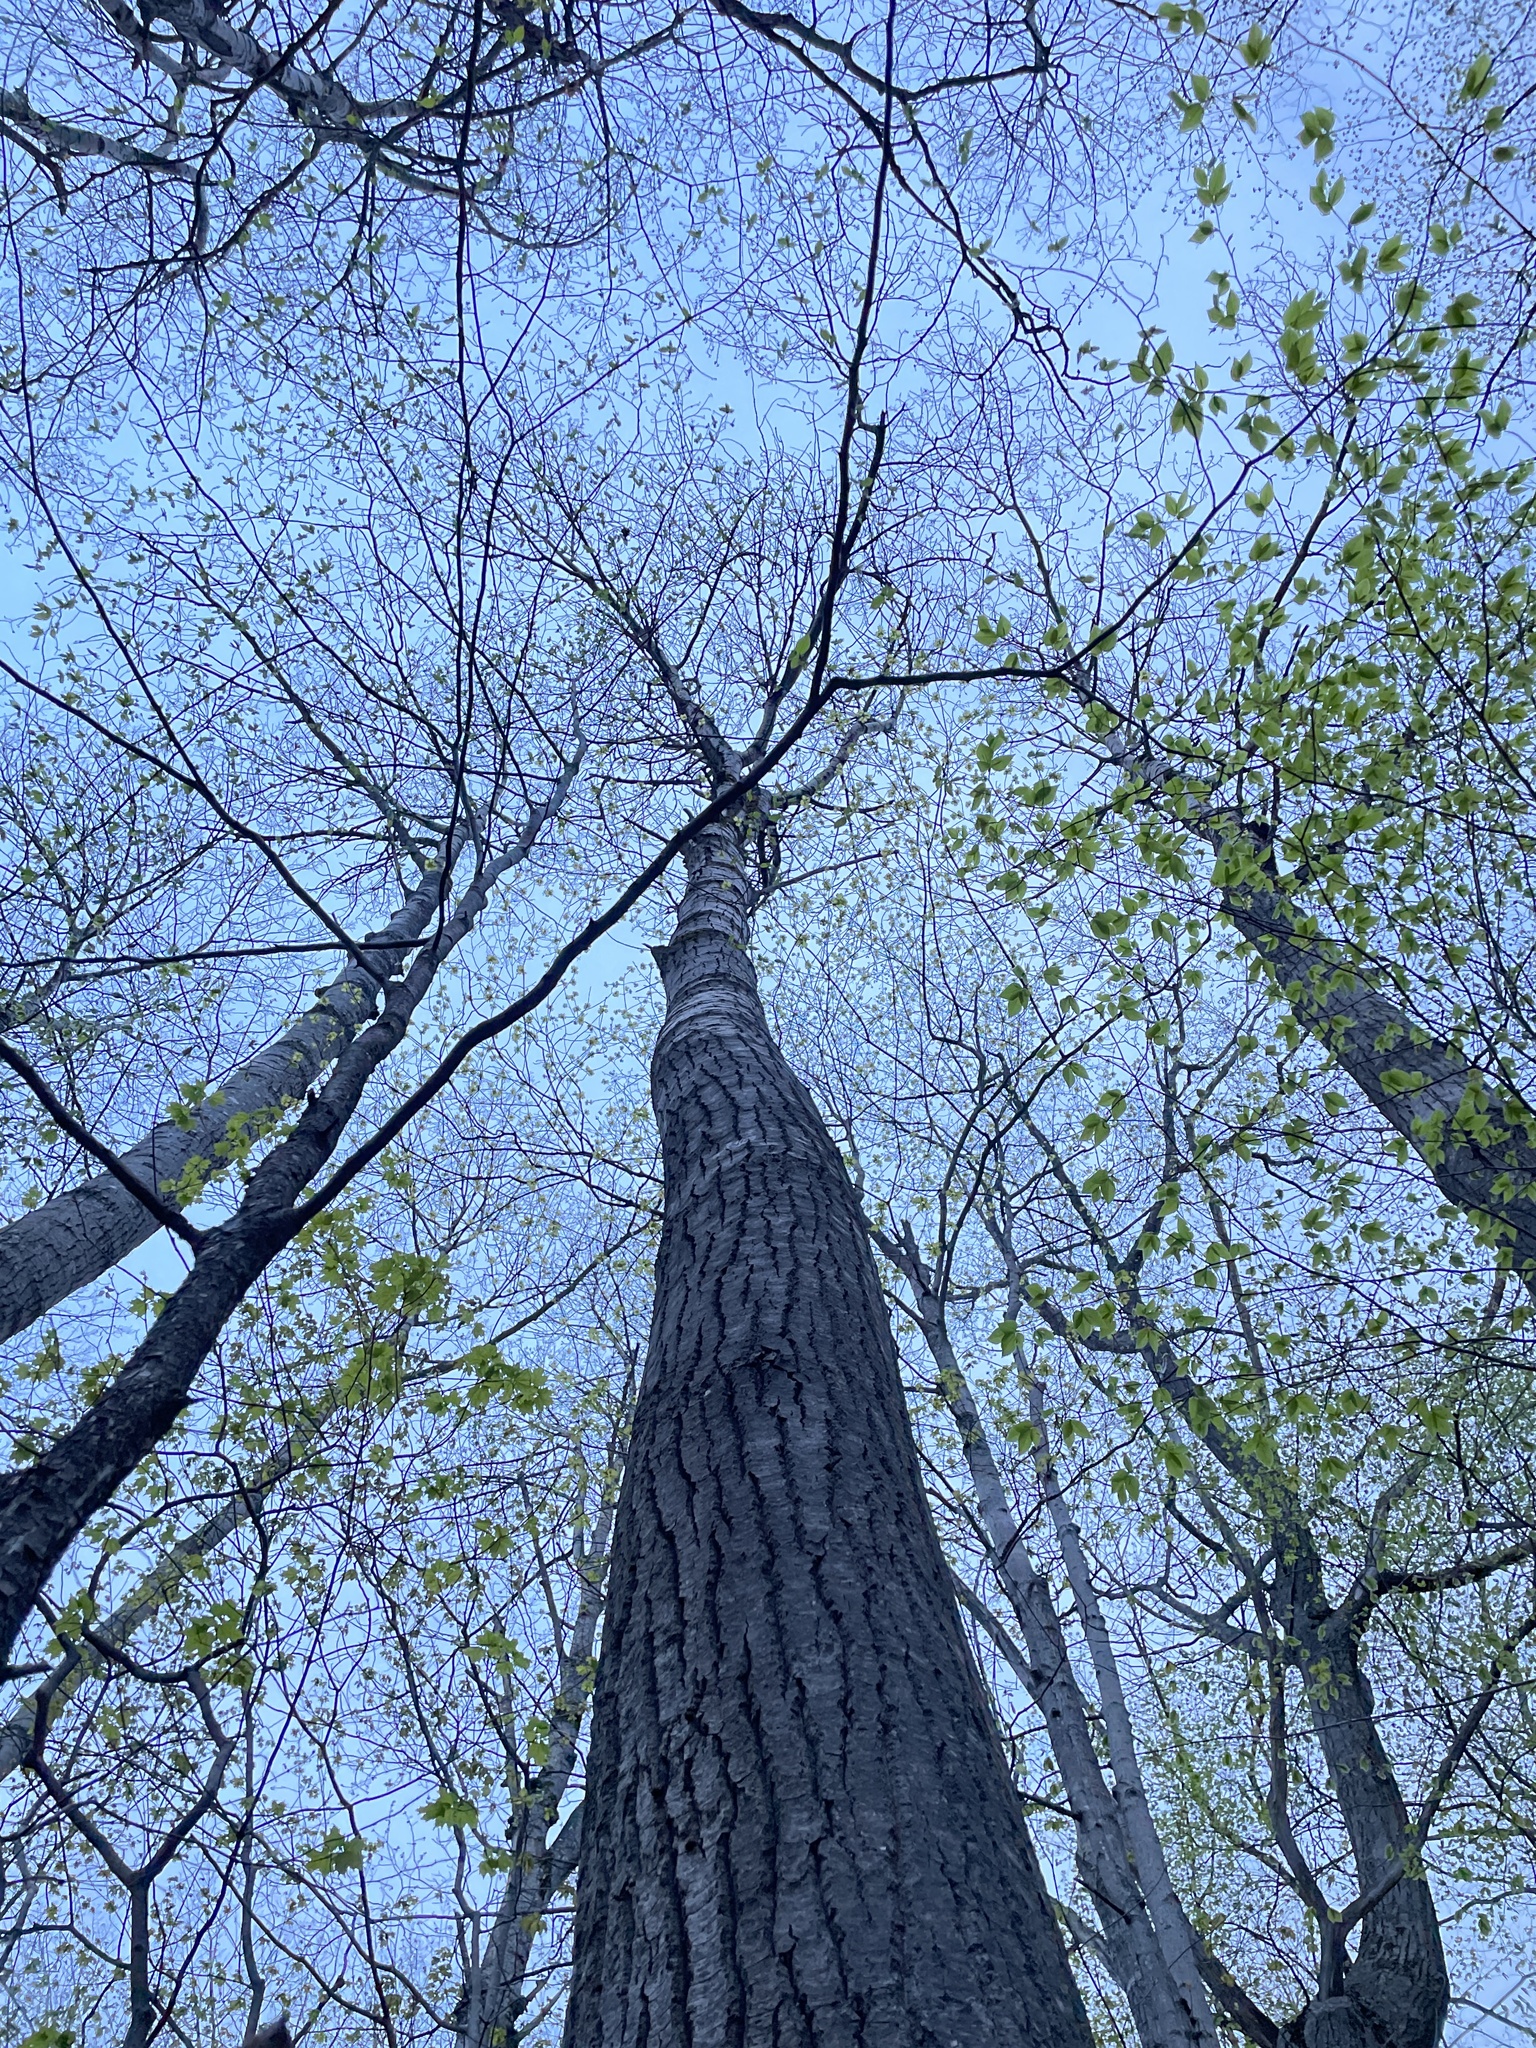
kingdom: Plantae
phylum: Tracheophyta
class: Magnoliopsida
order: Malpighiales
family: Salicaceae
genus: Populus
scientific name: Populus grandidentata
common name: Bigtooth aspen
